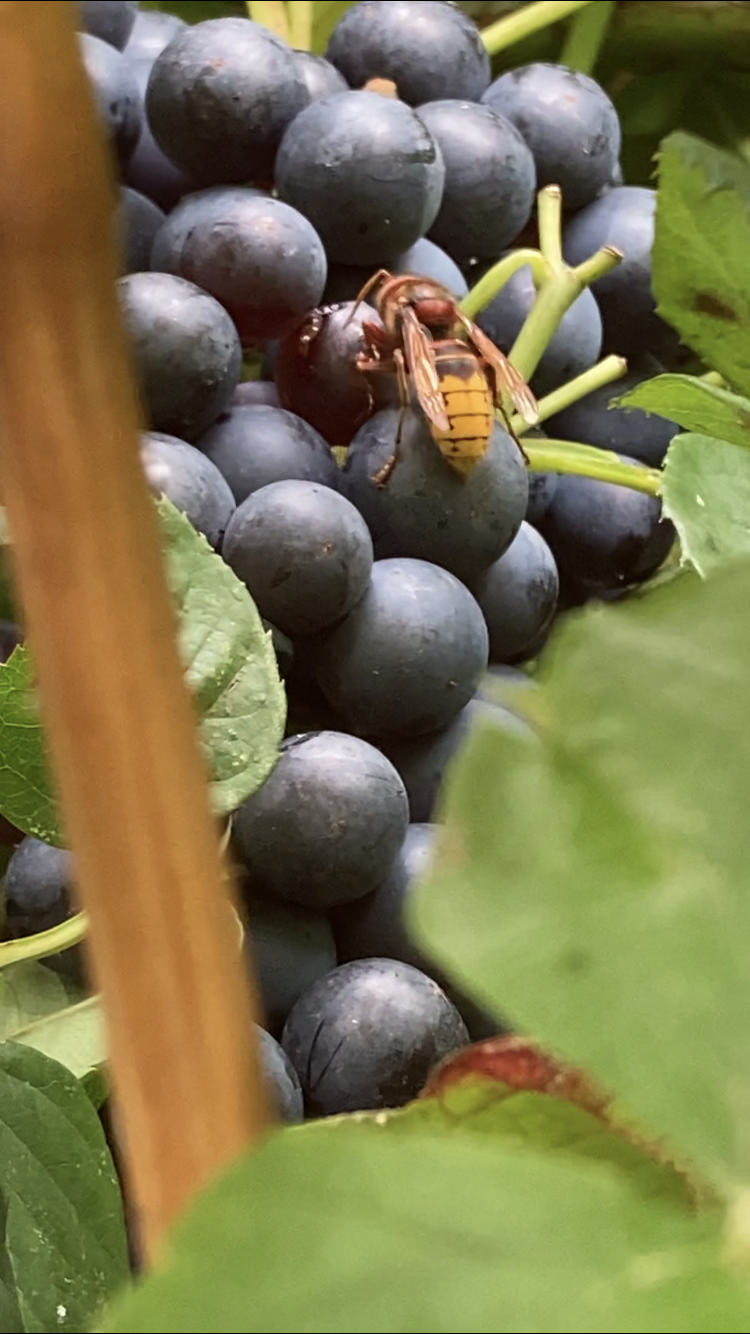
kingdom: Animalia
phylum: Arthropoda
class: Insecta
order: Hymenoptera
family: Vespidae
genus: Vespa
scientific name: Vespa crabro
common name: Hornet
